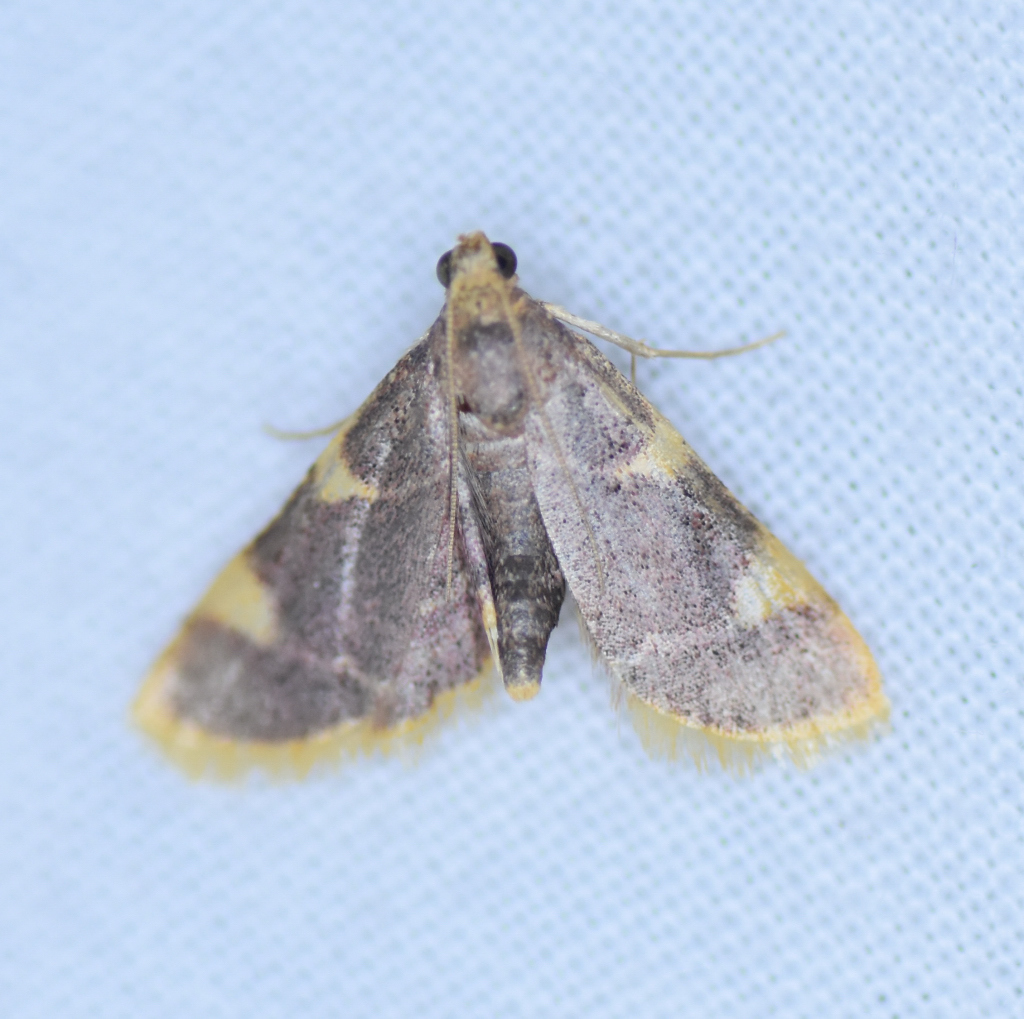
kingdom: Animalia
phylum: Arthropoda
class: Insecta
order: Lepidoptera
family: Pyralidae
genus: Hypsopygia
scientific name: Hypsopygia costalis
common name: Gold triangle
